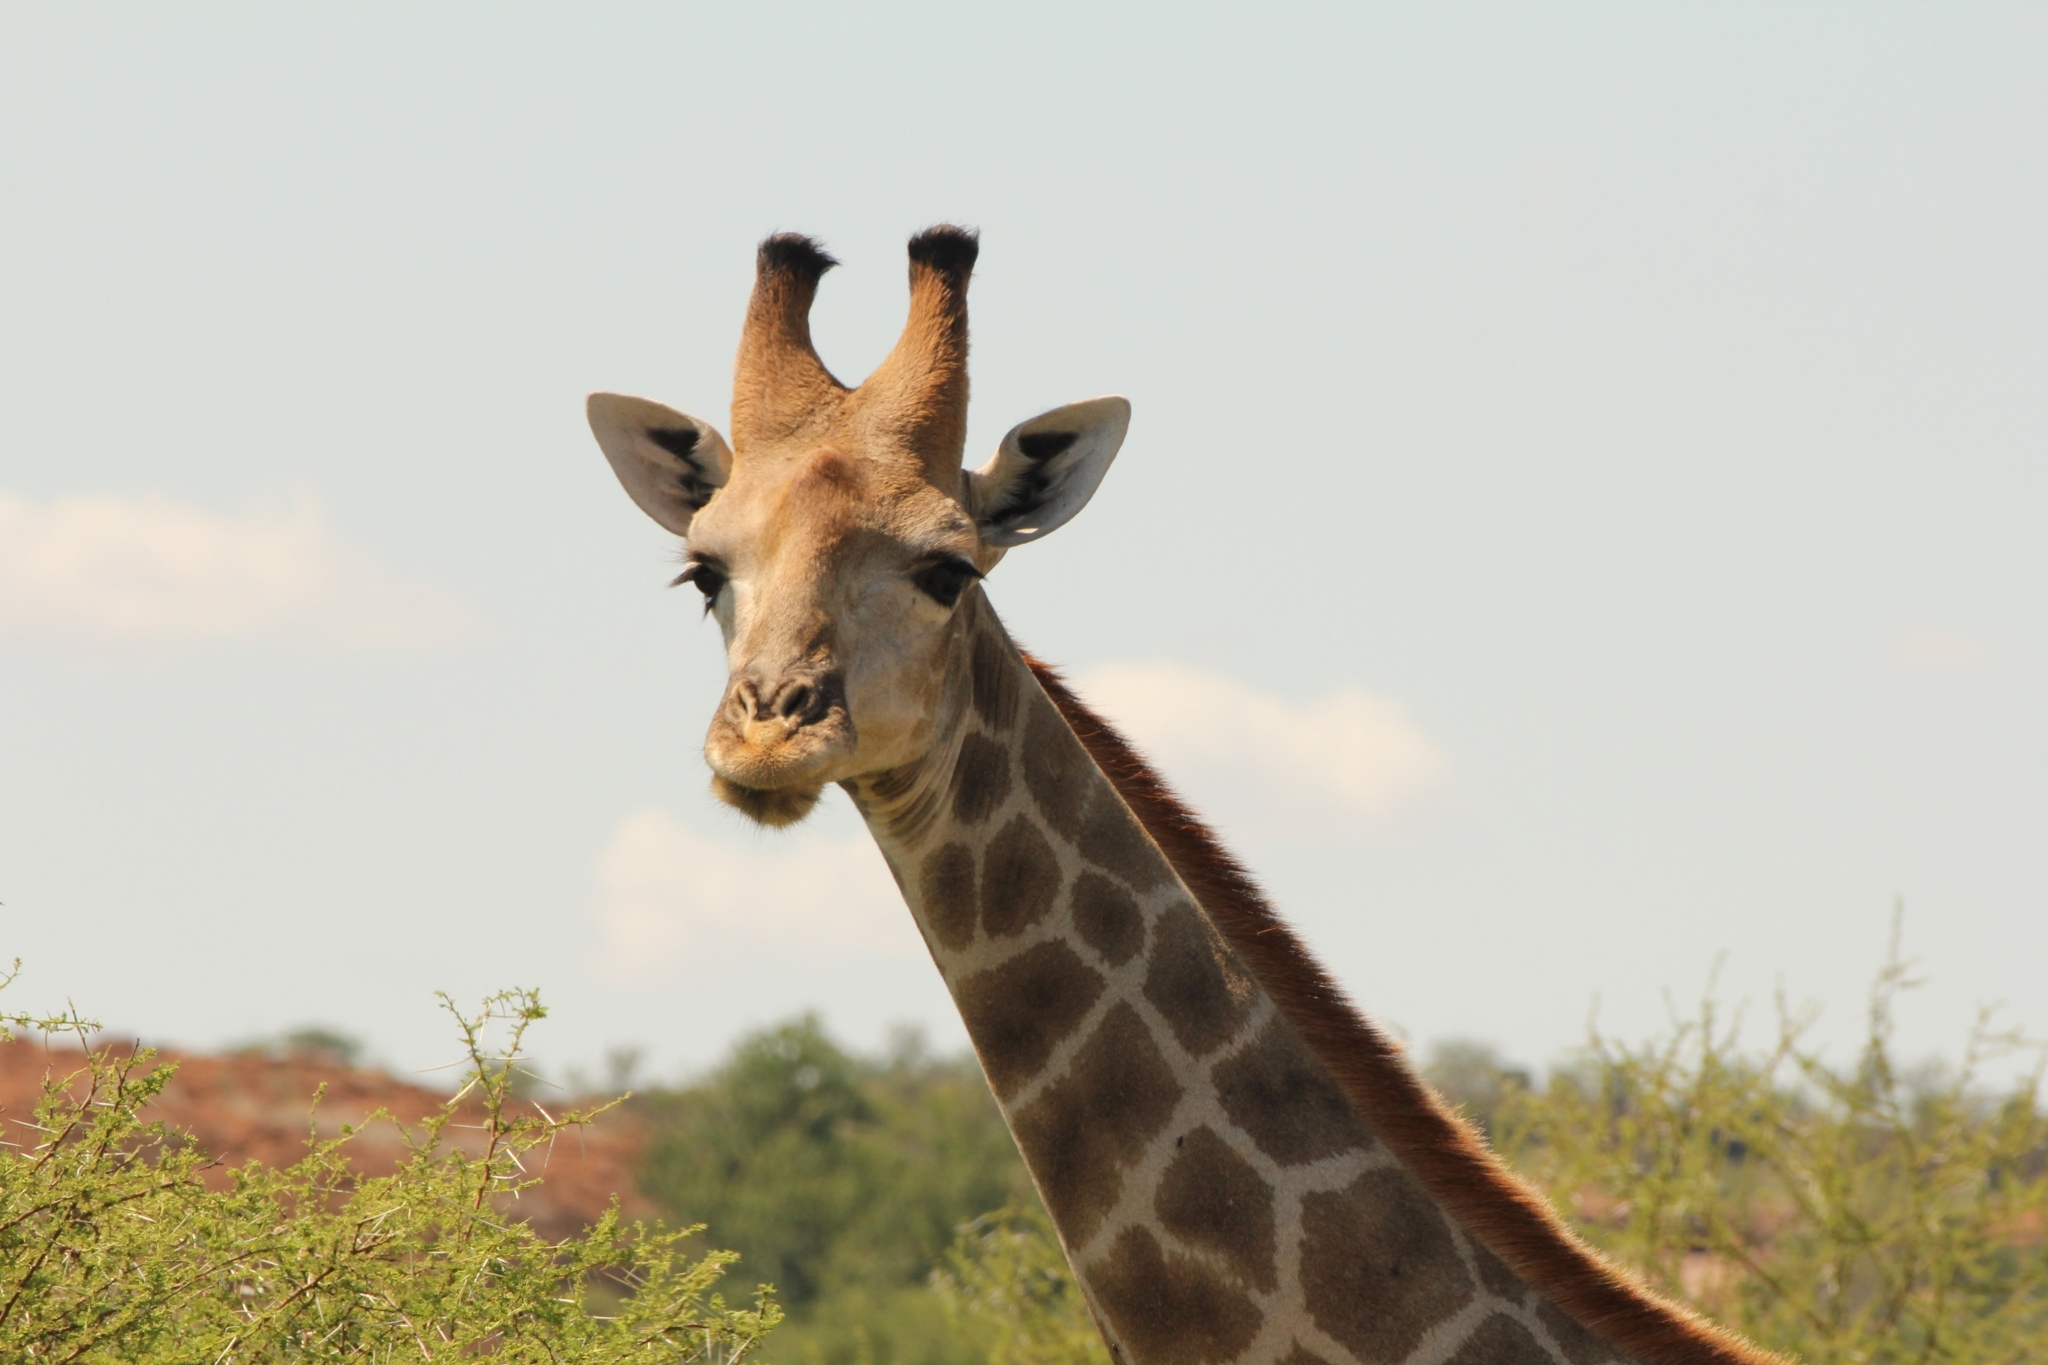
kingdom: Animalia
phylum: Chordata
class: Mammalia
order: Artiodactyla
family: Giraffidae
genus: Giraffa
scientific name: Giraffa giraffa
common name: Southern giraffe
